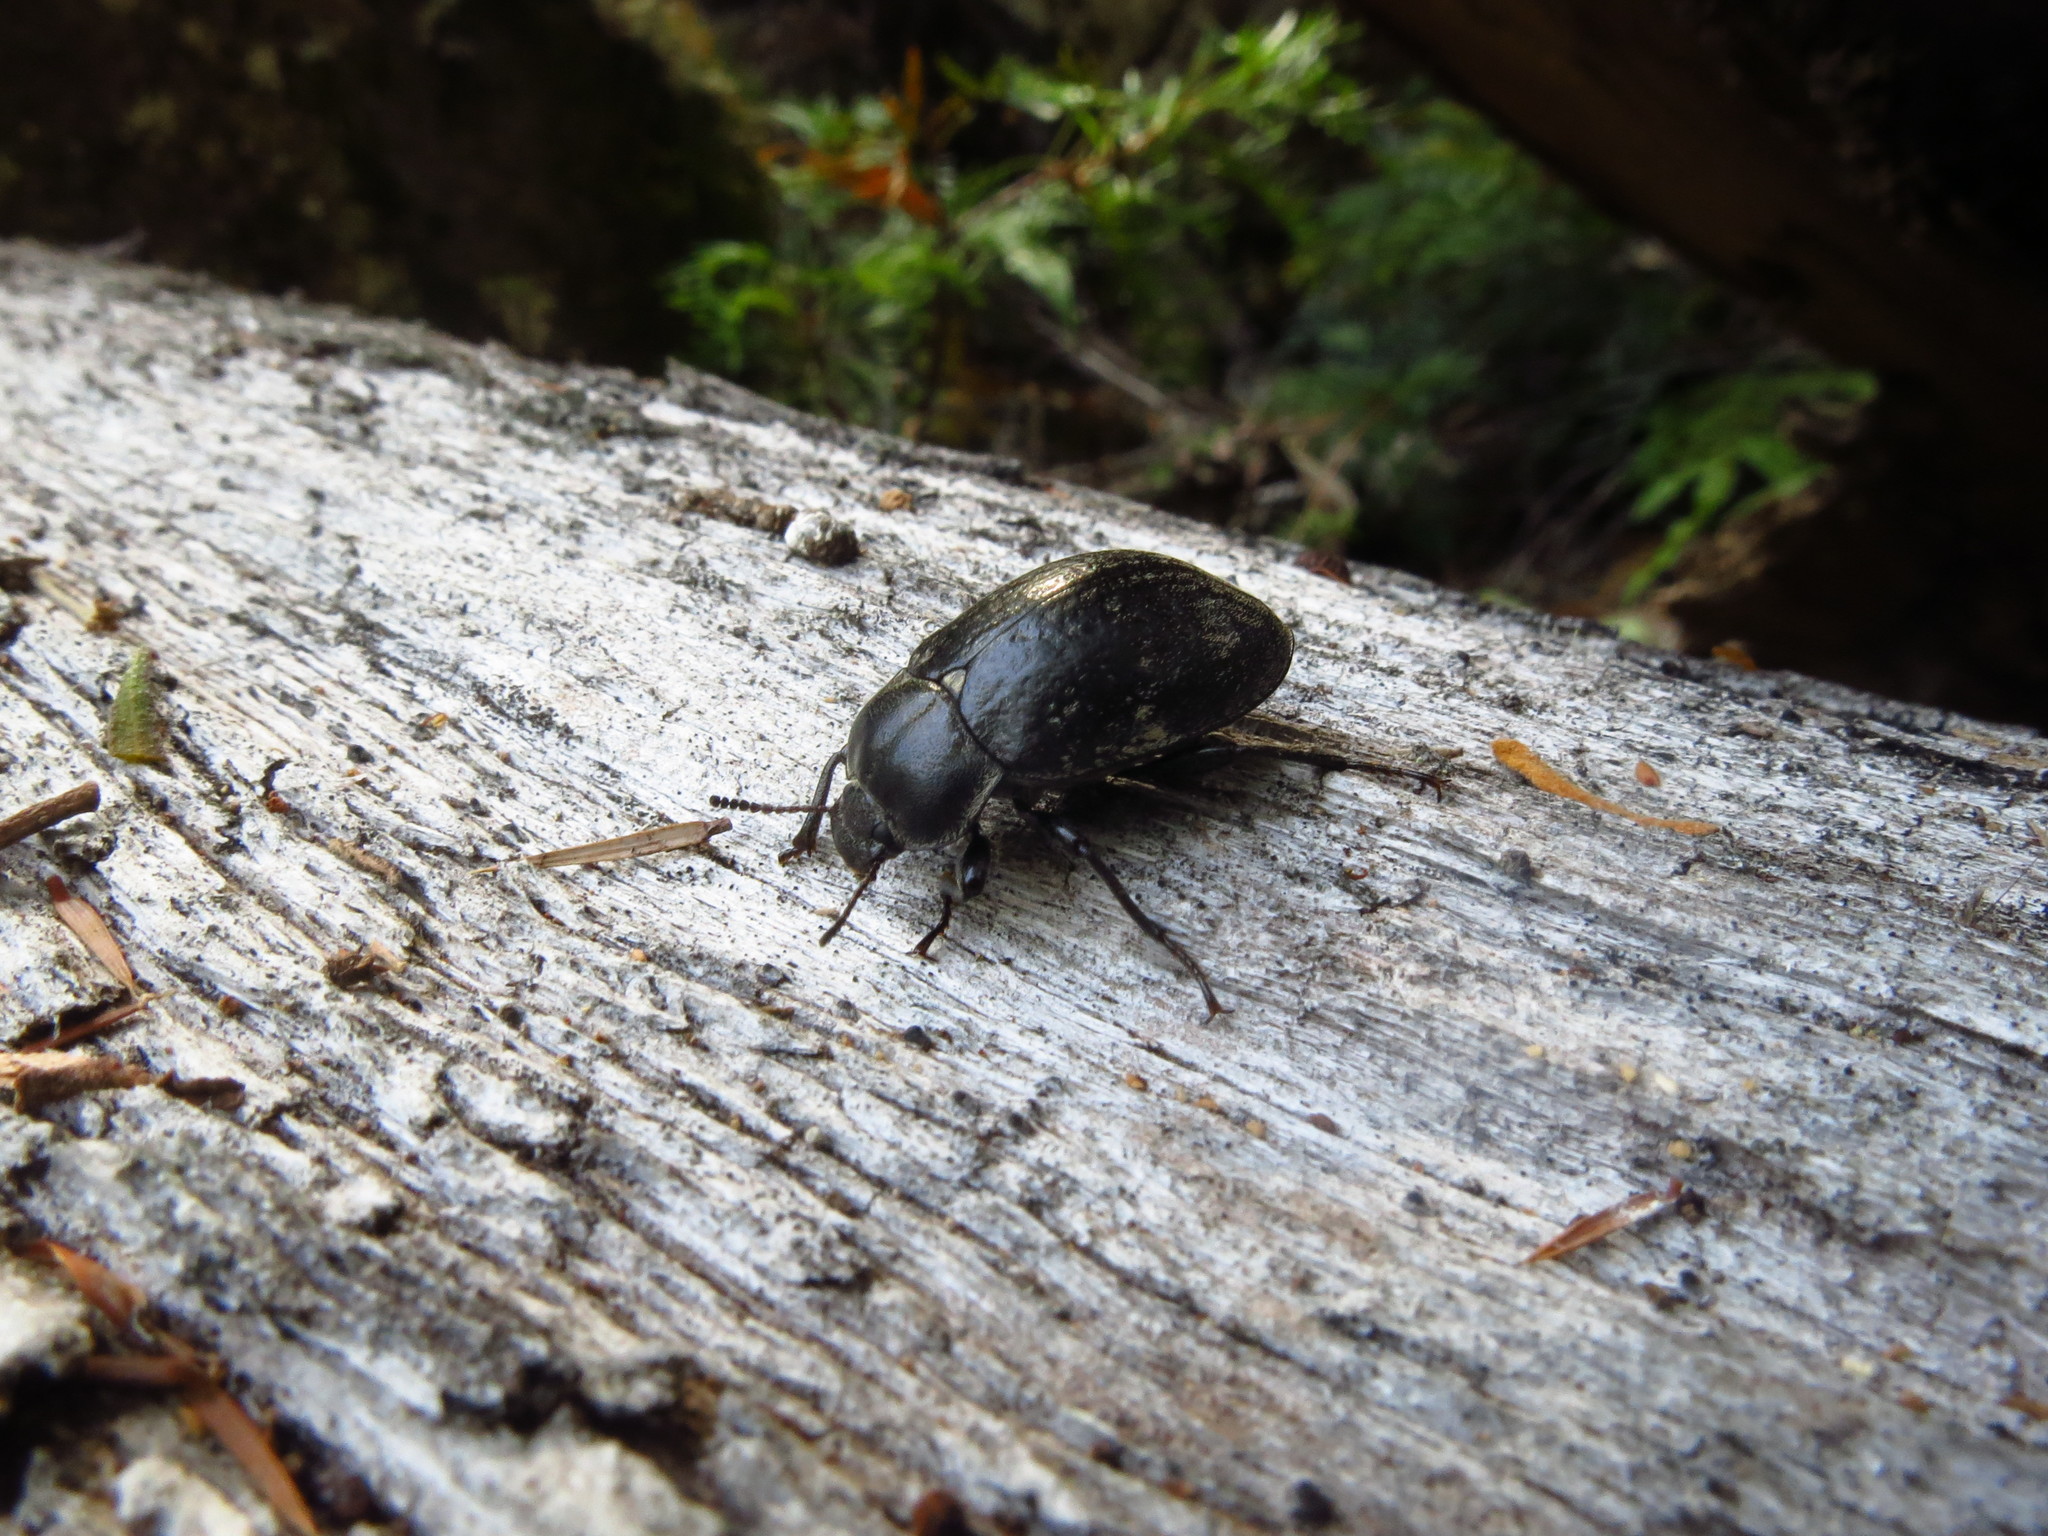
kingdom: Animalia
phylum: Arthropoda
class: Insecta
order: Coleoptera
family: Tenebrionidae
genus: Pachycoelia
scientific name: Pachycoelia
